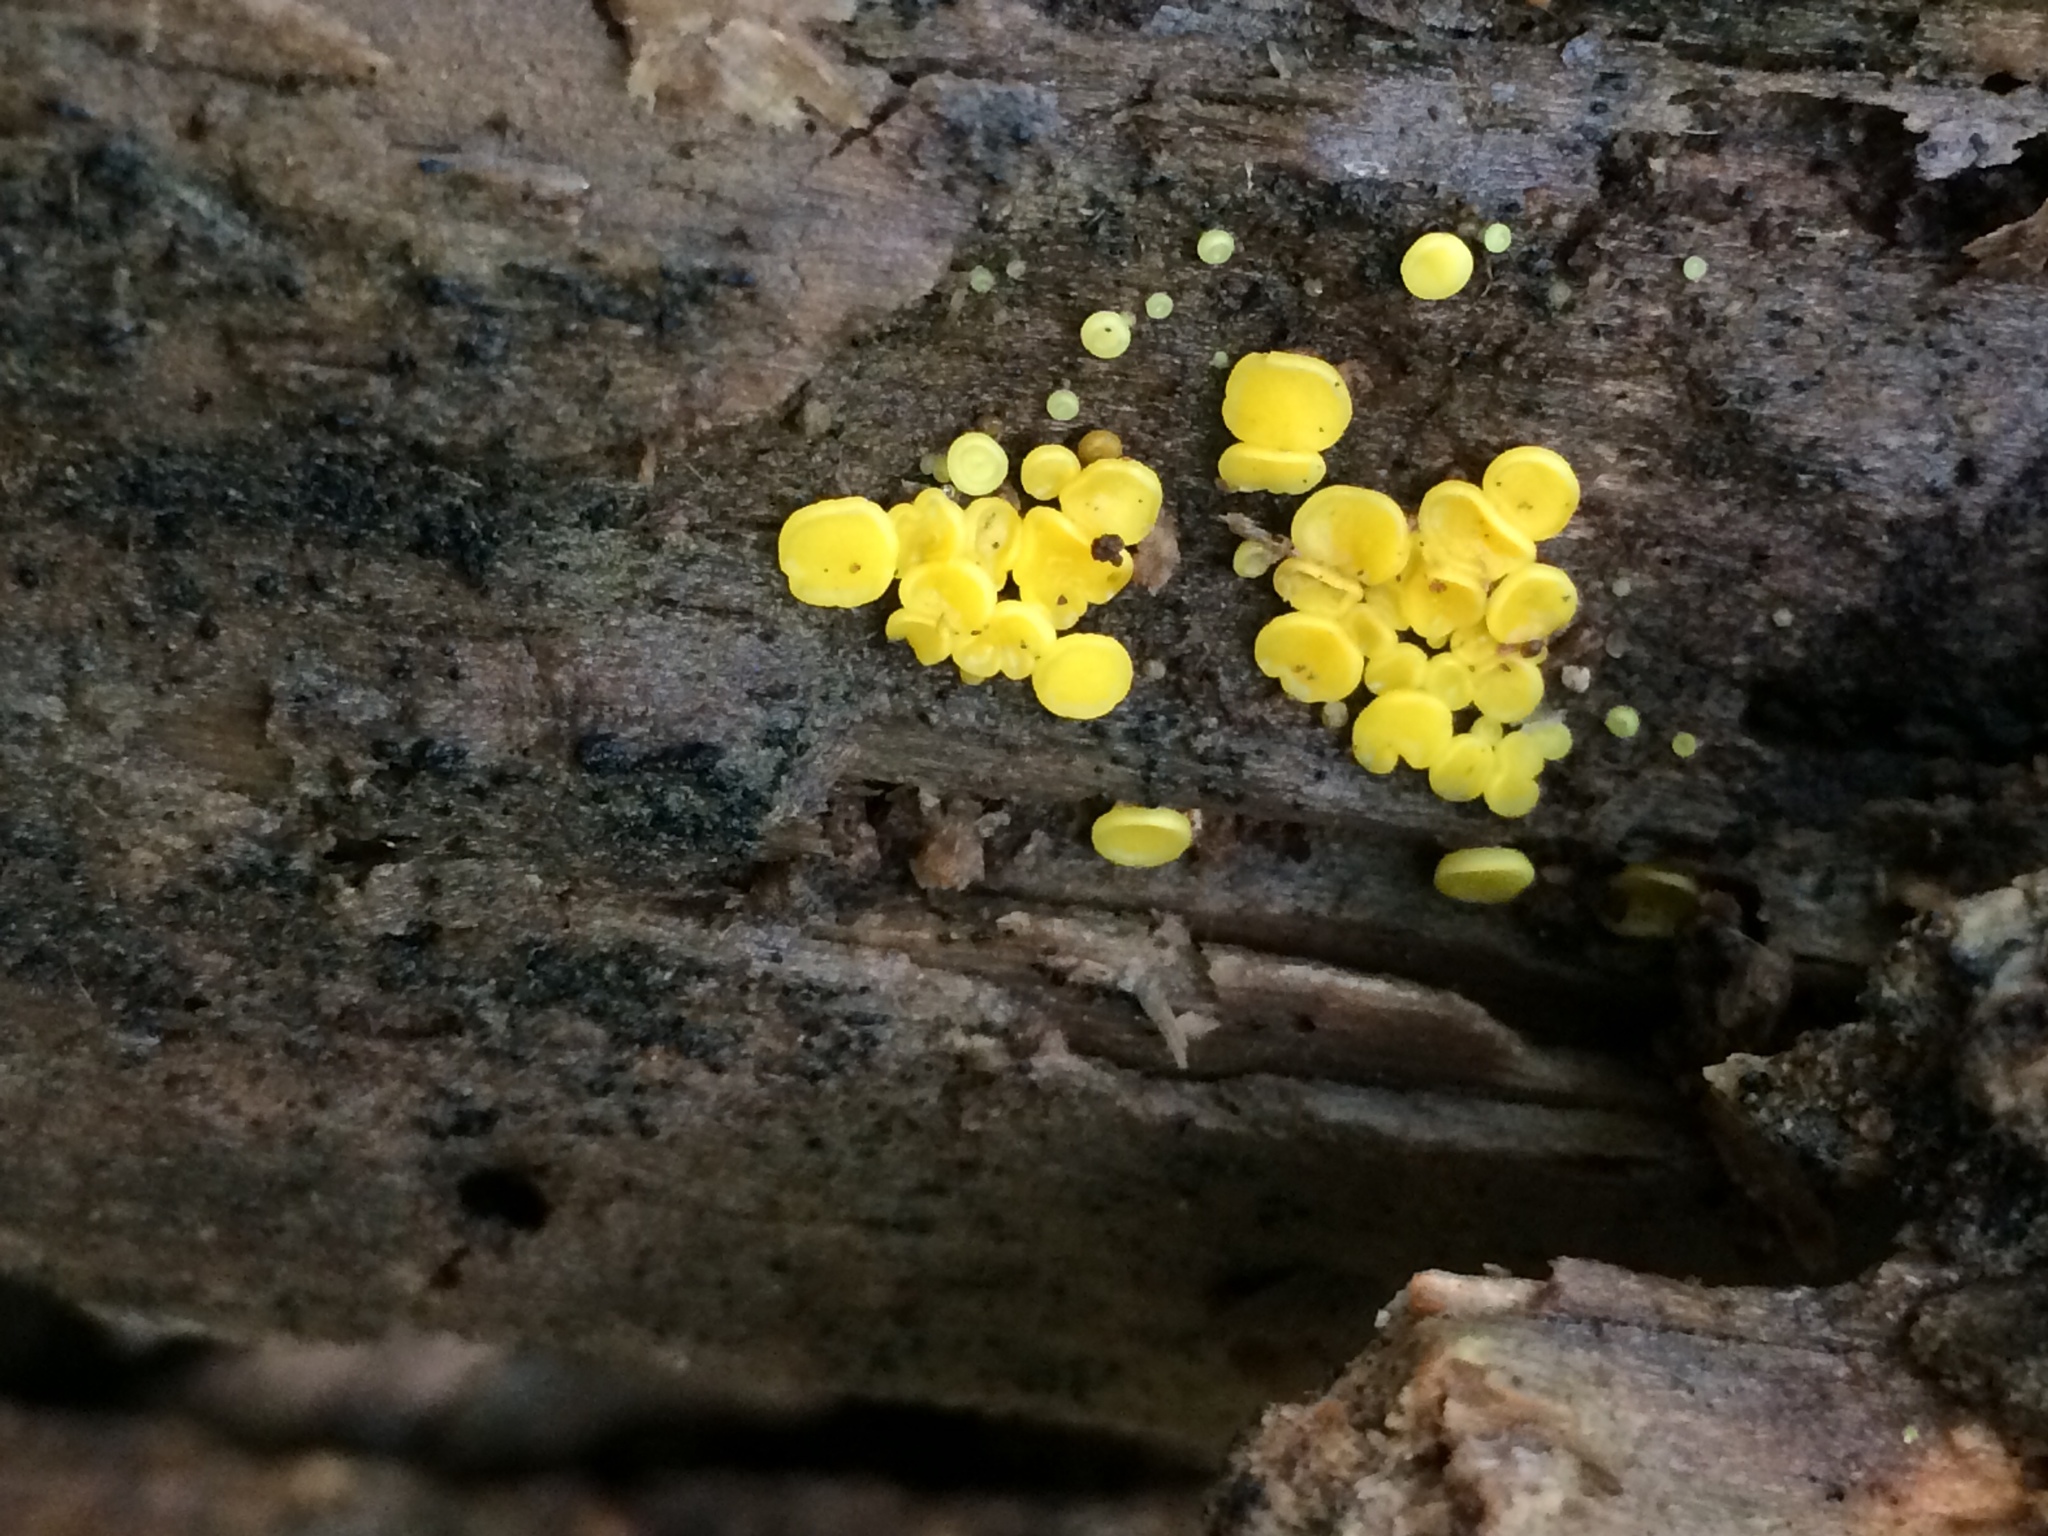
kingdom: Fungi
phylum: Ascomycota
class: Leotiomycetes
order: Helotiales
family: Pezizellaceae
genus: Calycina
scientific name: Calycina citrina
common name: Yellow fairy cups
